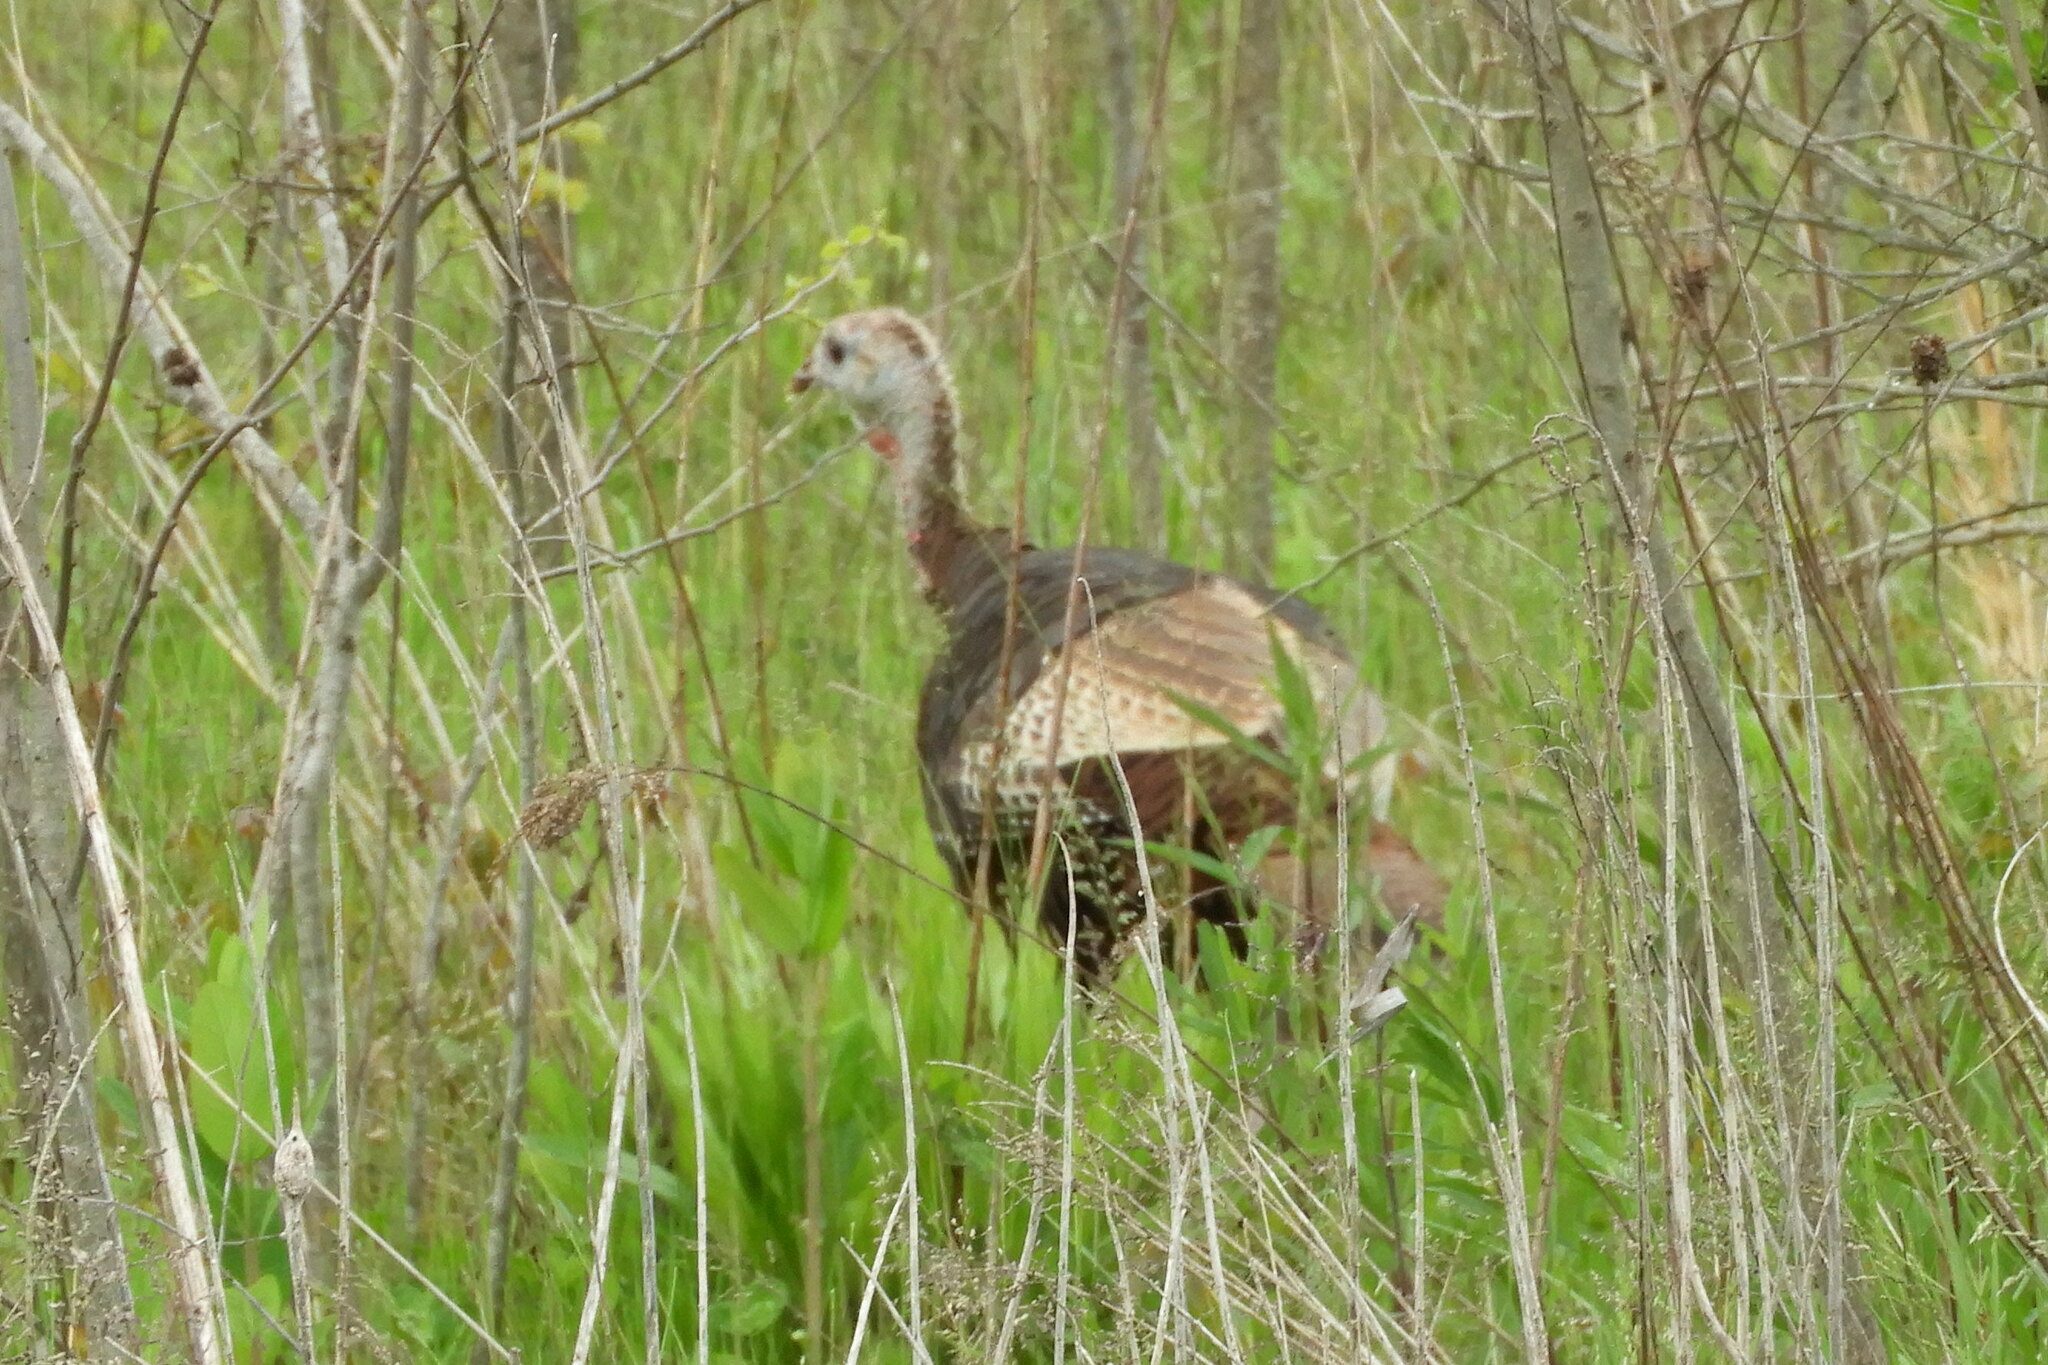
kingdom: Animalia
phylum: Chordata
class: Aves
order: Galliformes
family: Phasianidae
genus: Meleagris
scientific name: Meleagris gallopavo
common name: Wild turkey
